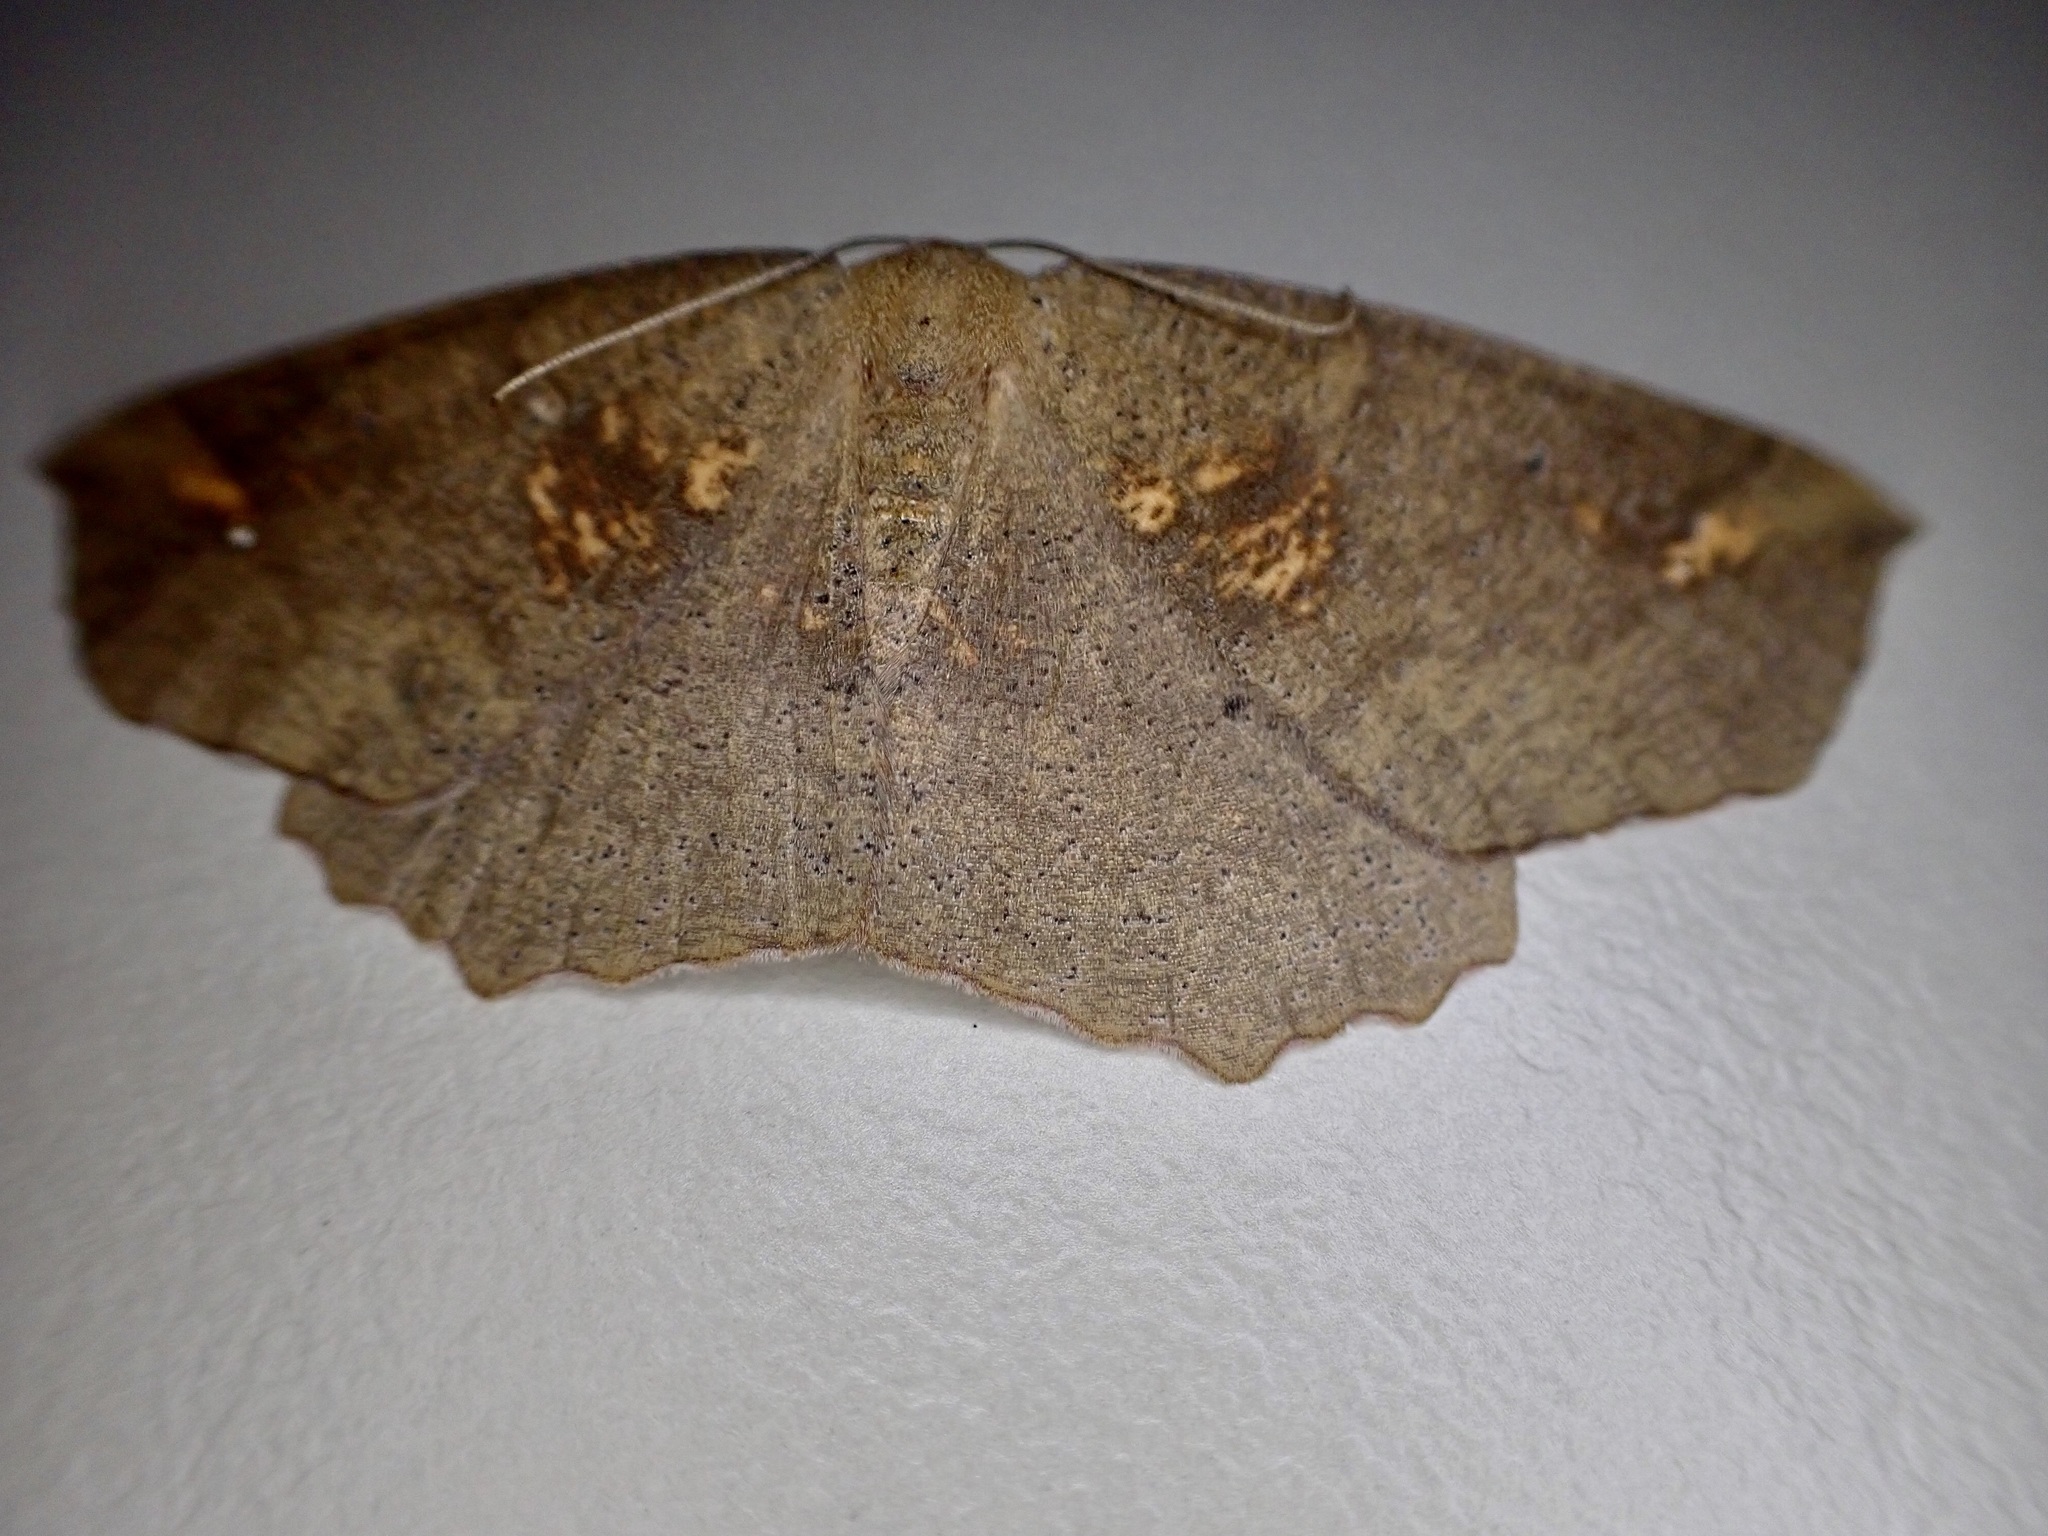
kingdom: Animalia
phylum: Arthropoda
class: Insecta
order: Lepidoptera
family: Geometridae
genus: Xyridacma
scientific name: Xyridacma ustaria
